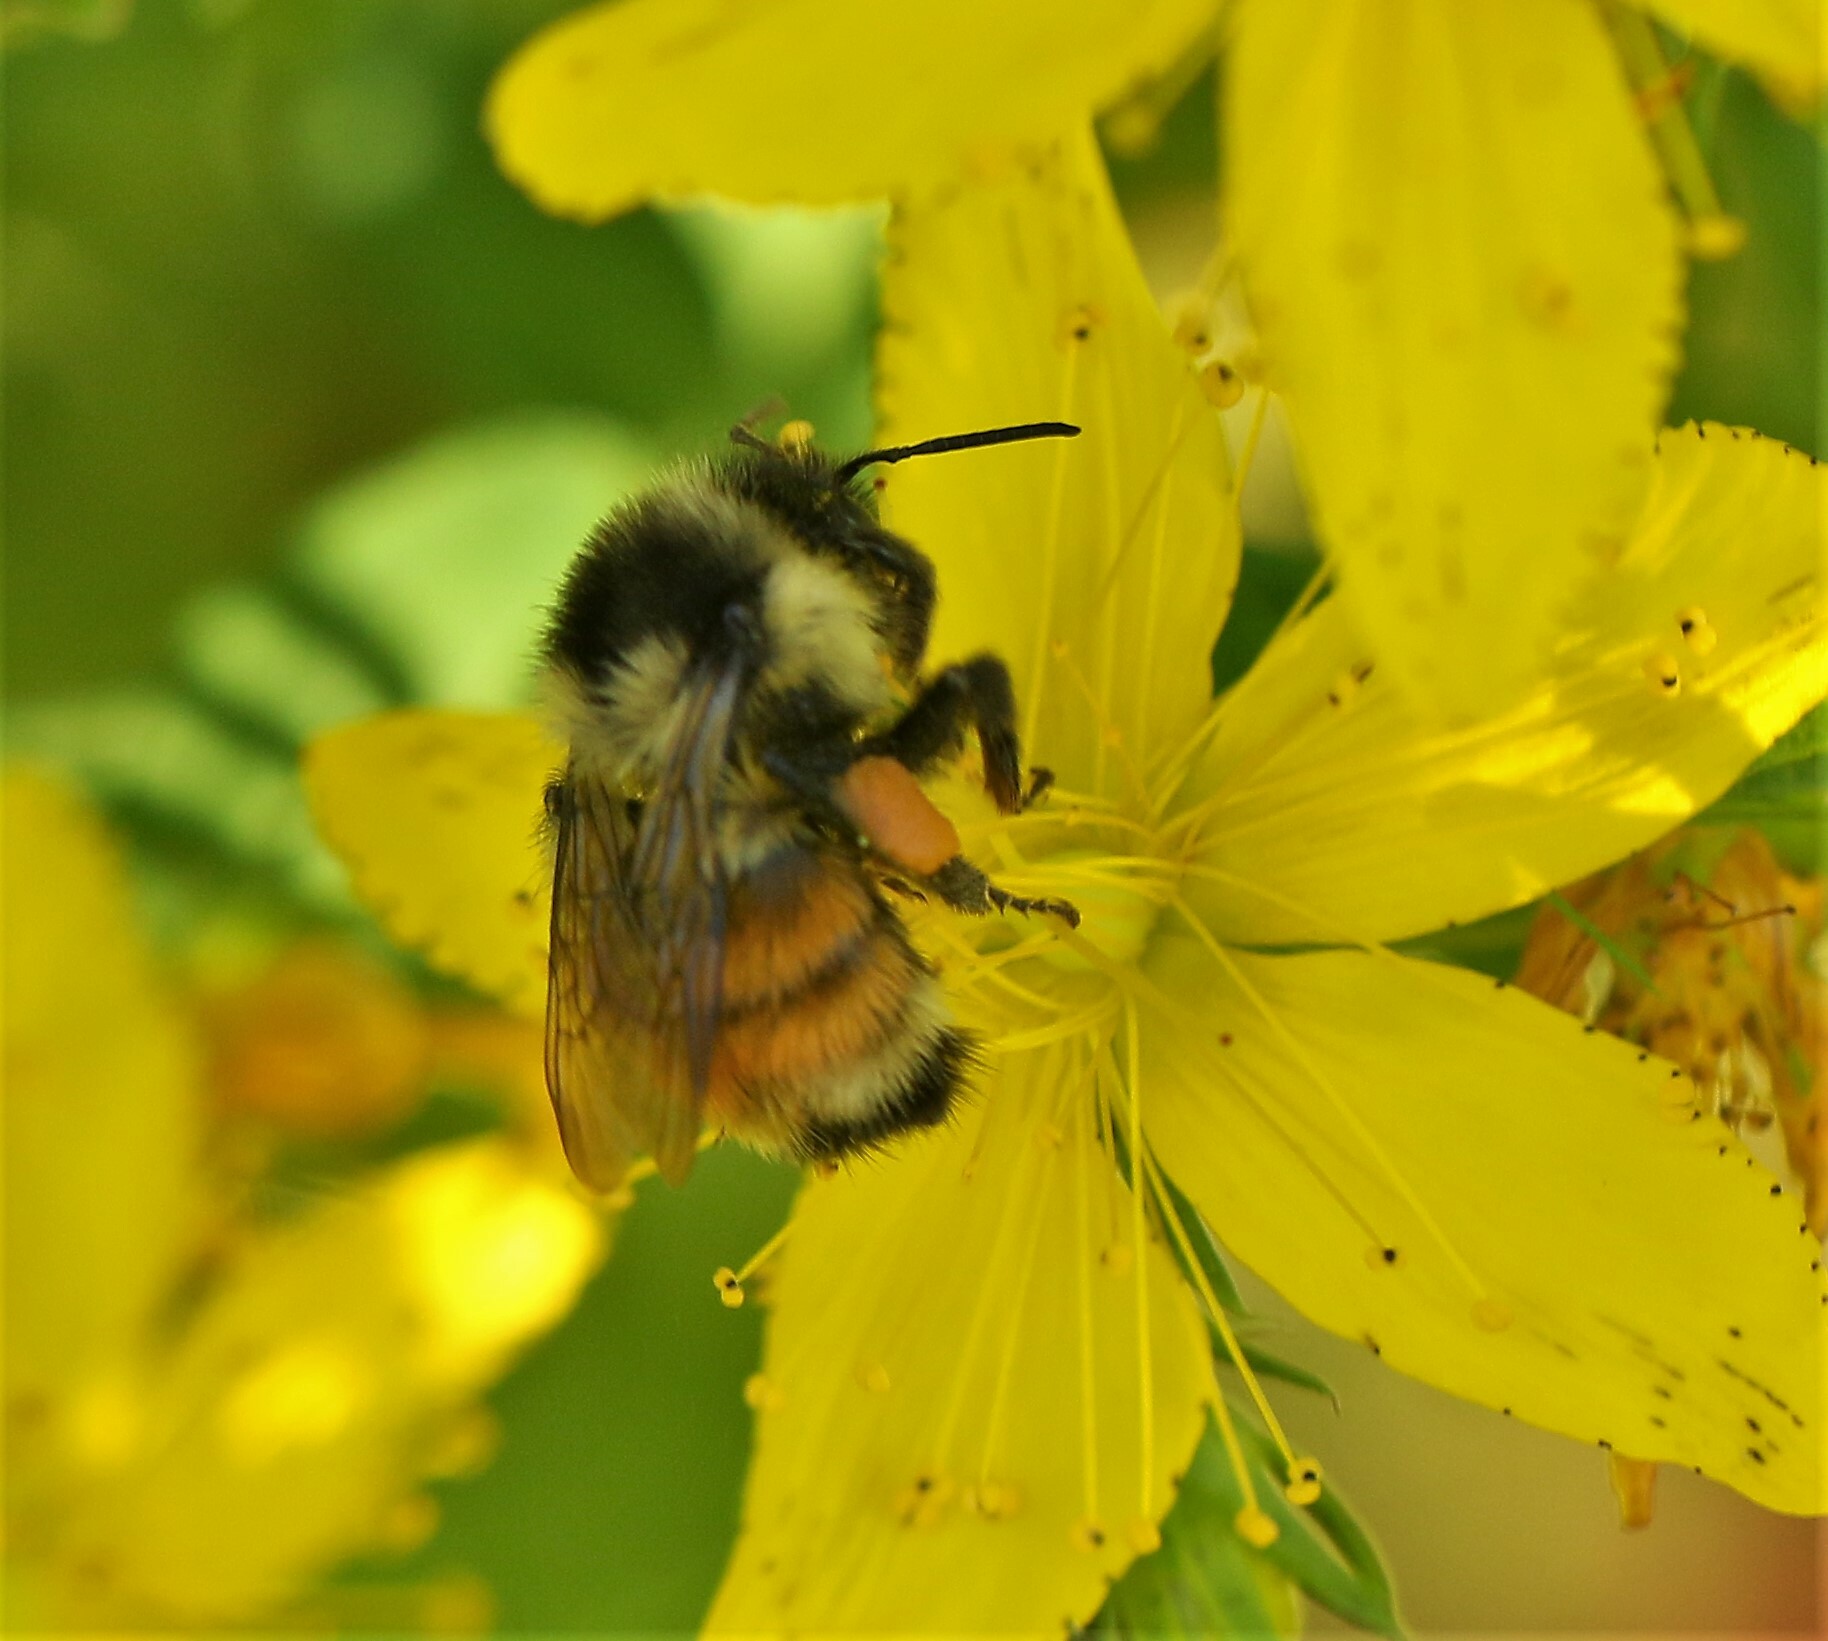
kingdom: Animalia
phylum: Arthropoda
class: Insecta
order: Hymenoptera
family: Apidae
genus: Bombus
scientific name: Bombus ternarius
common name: Tri-colored bumble bee
